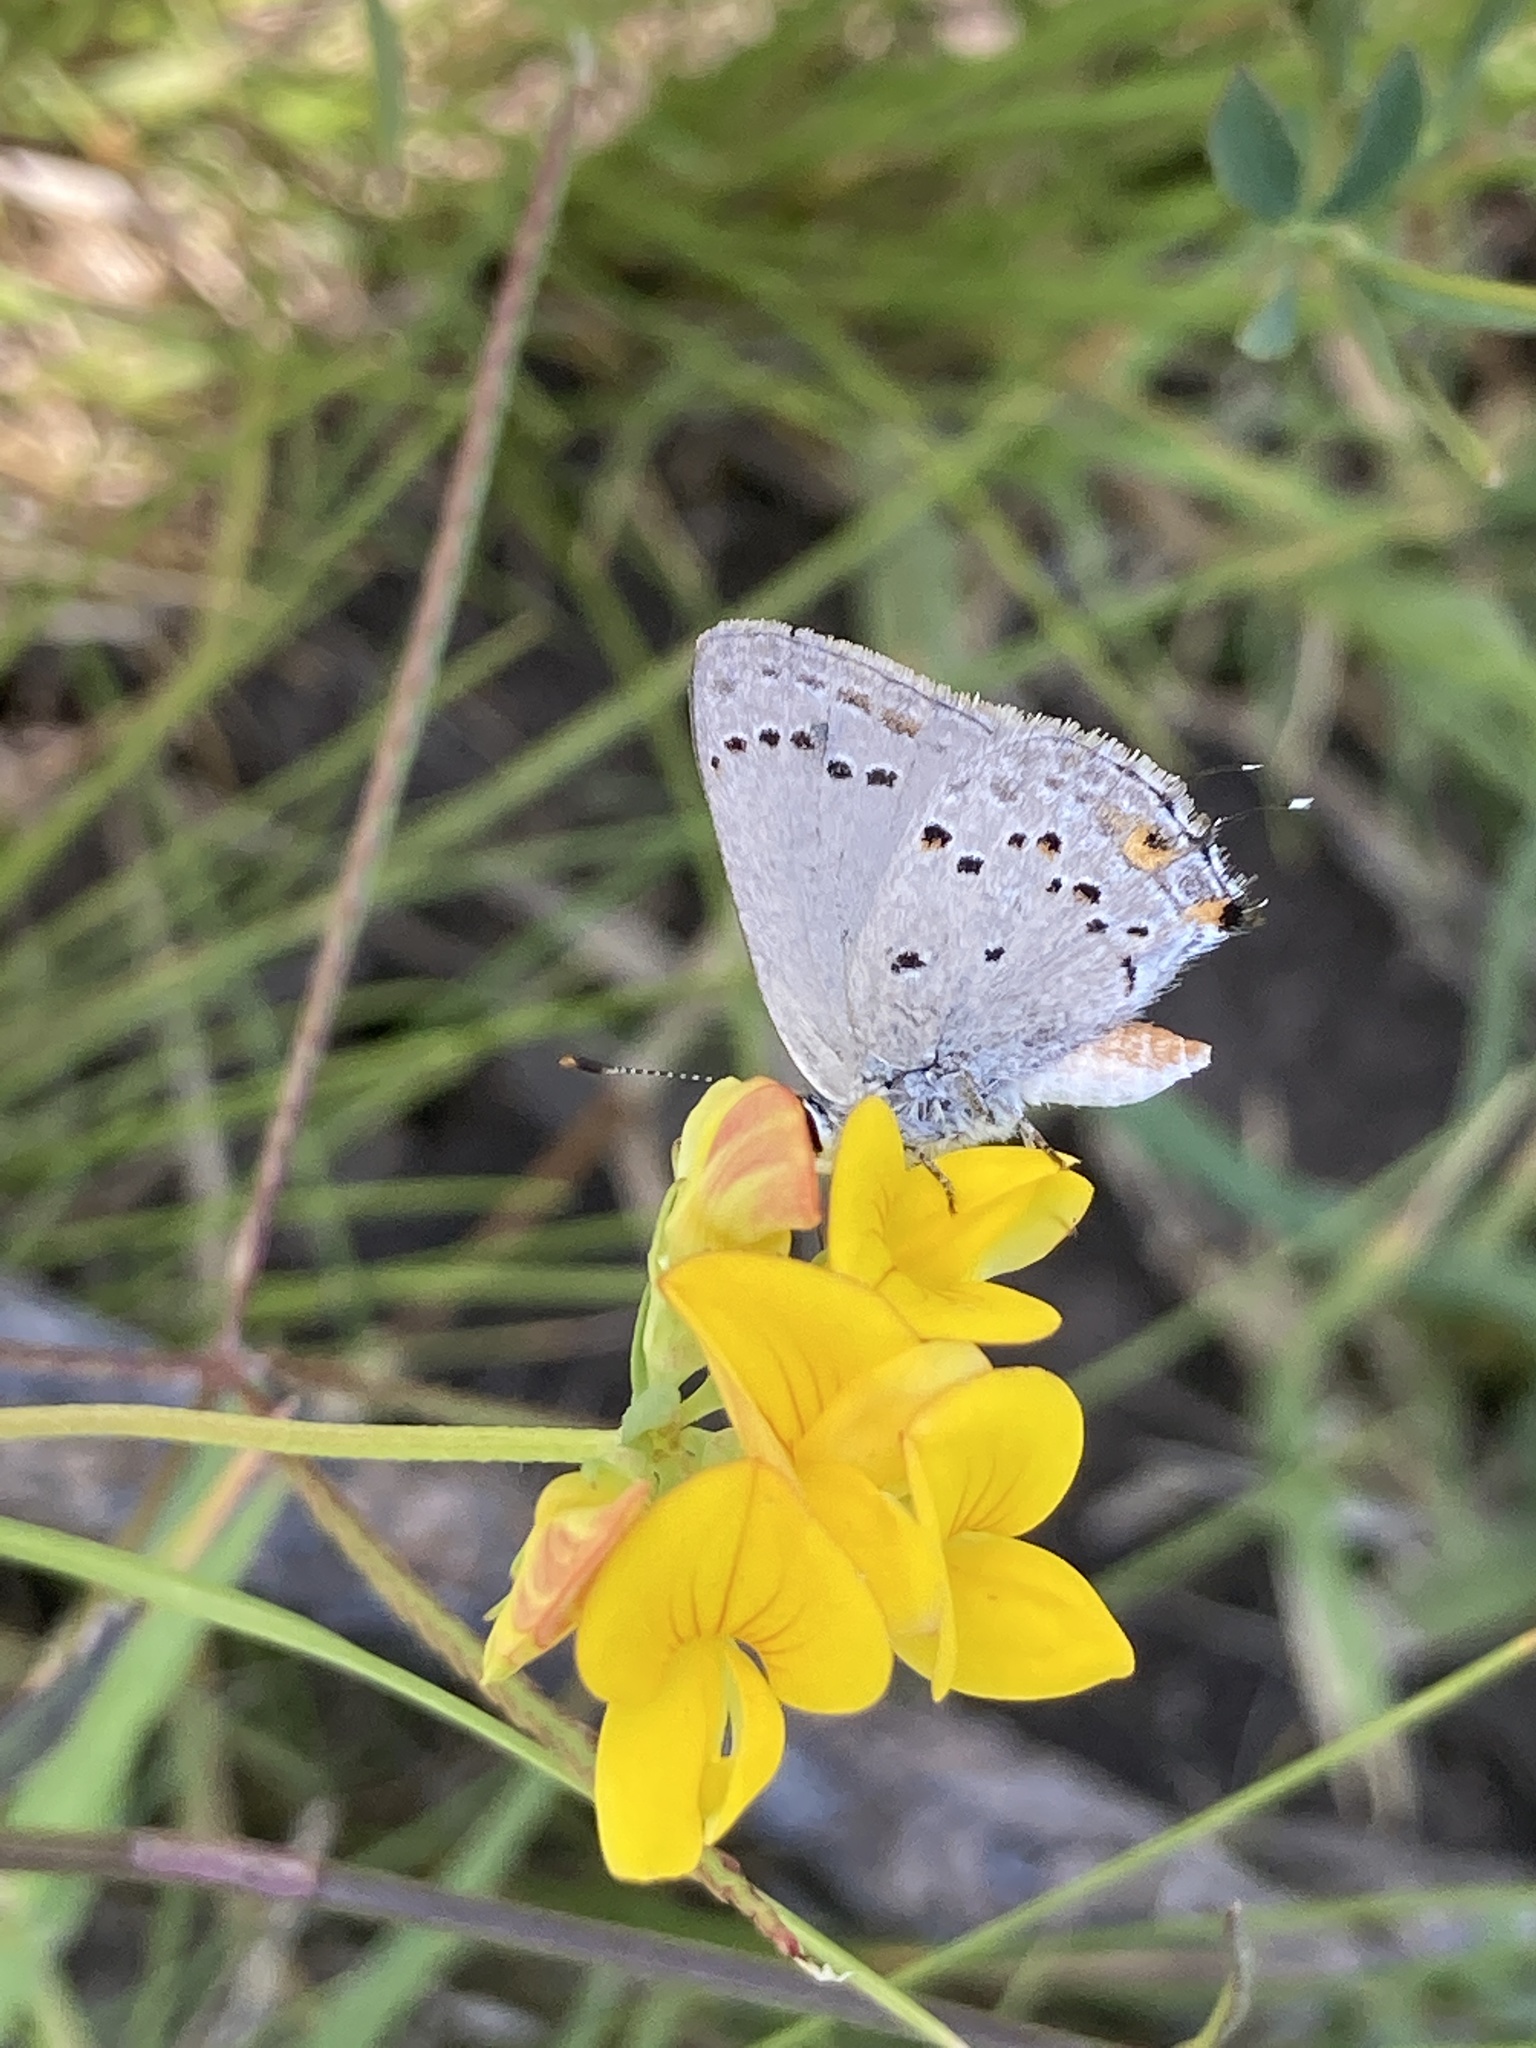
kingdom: Animalia
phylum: Arthropoda
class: Insecta
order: Lepidoptera
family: Lycaenidae
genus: Strymon
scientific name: Strymon eurytulus
